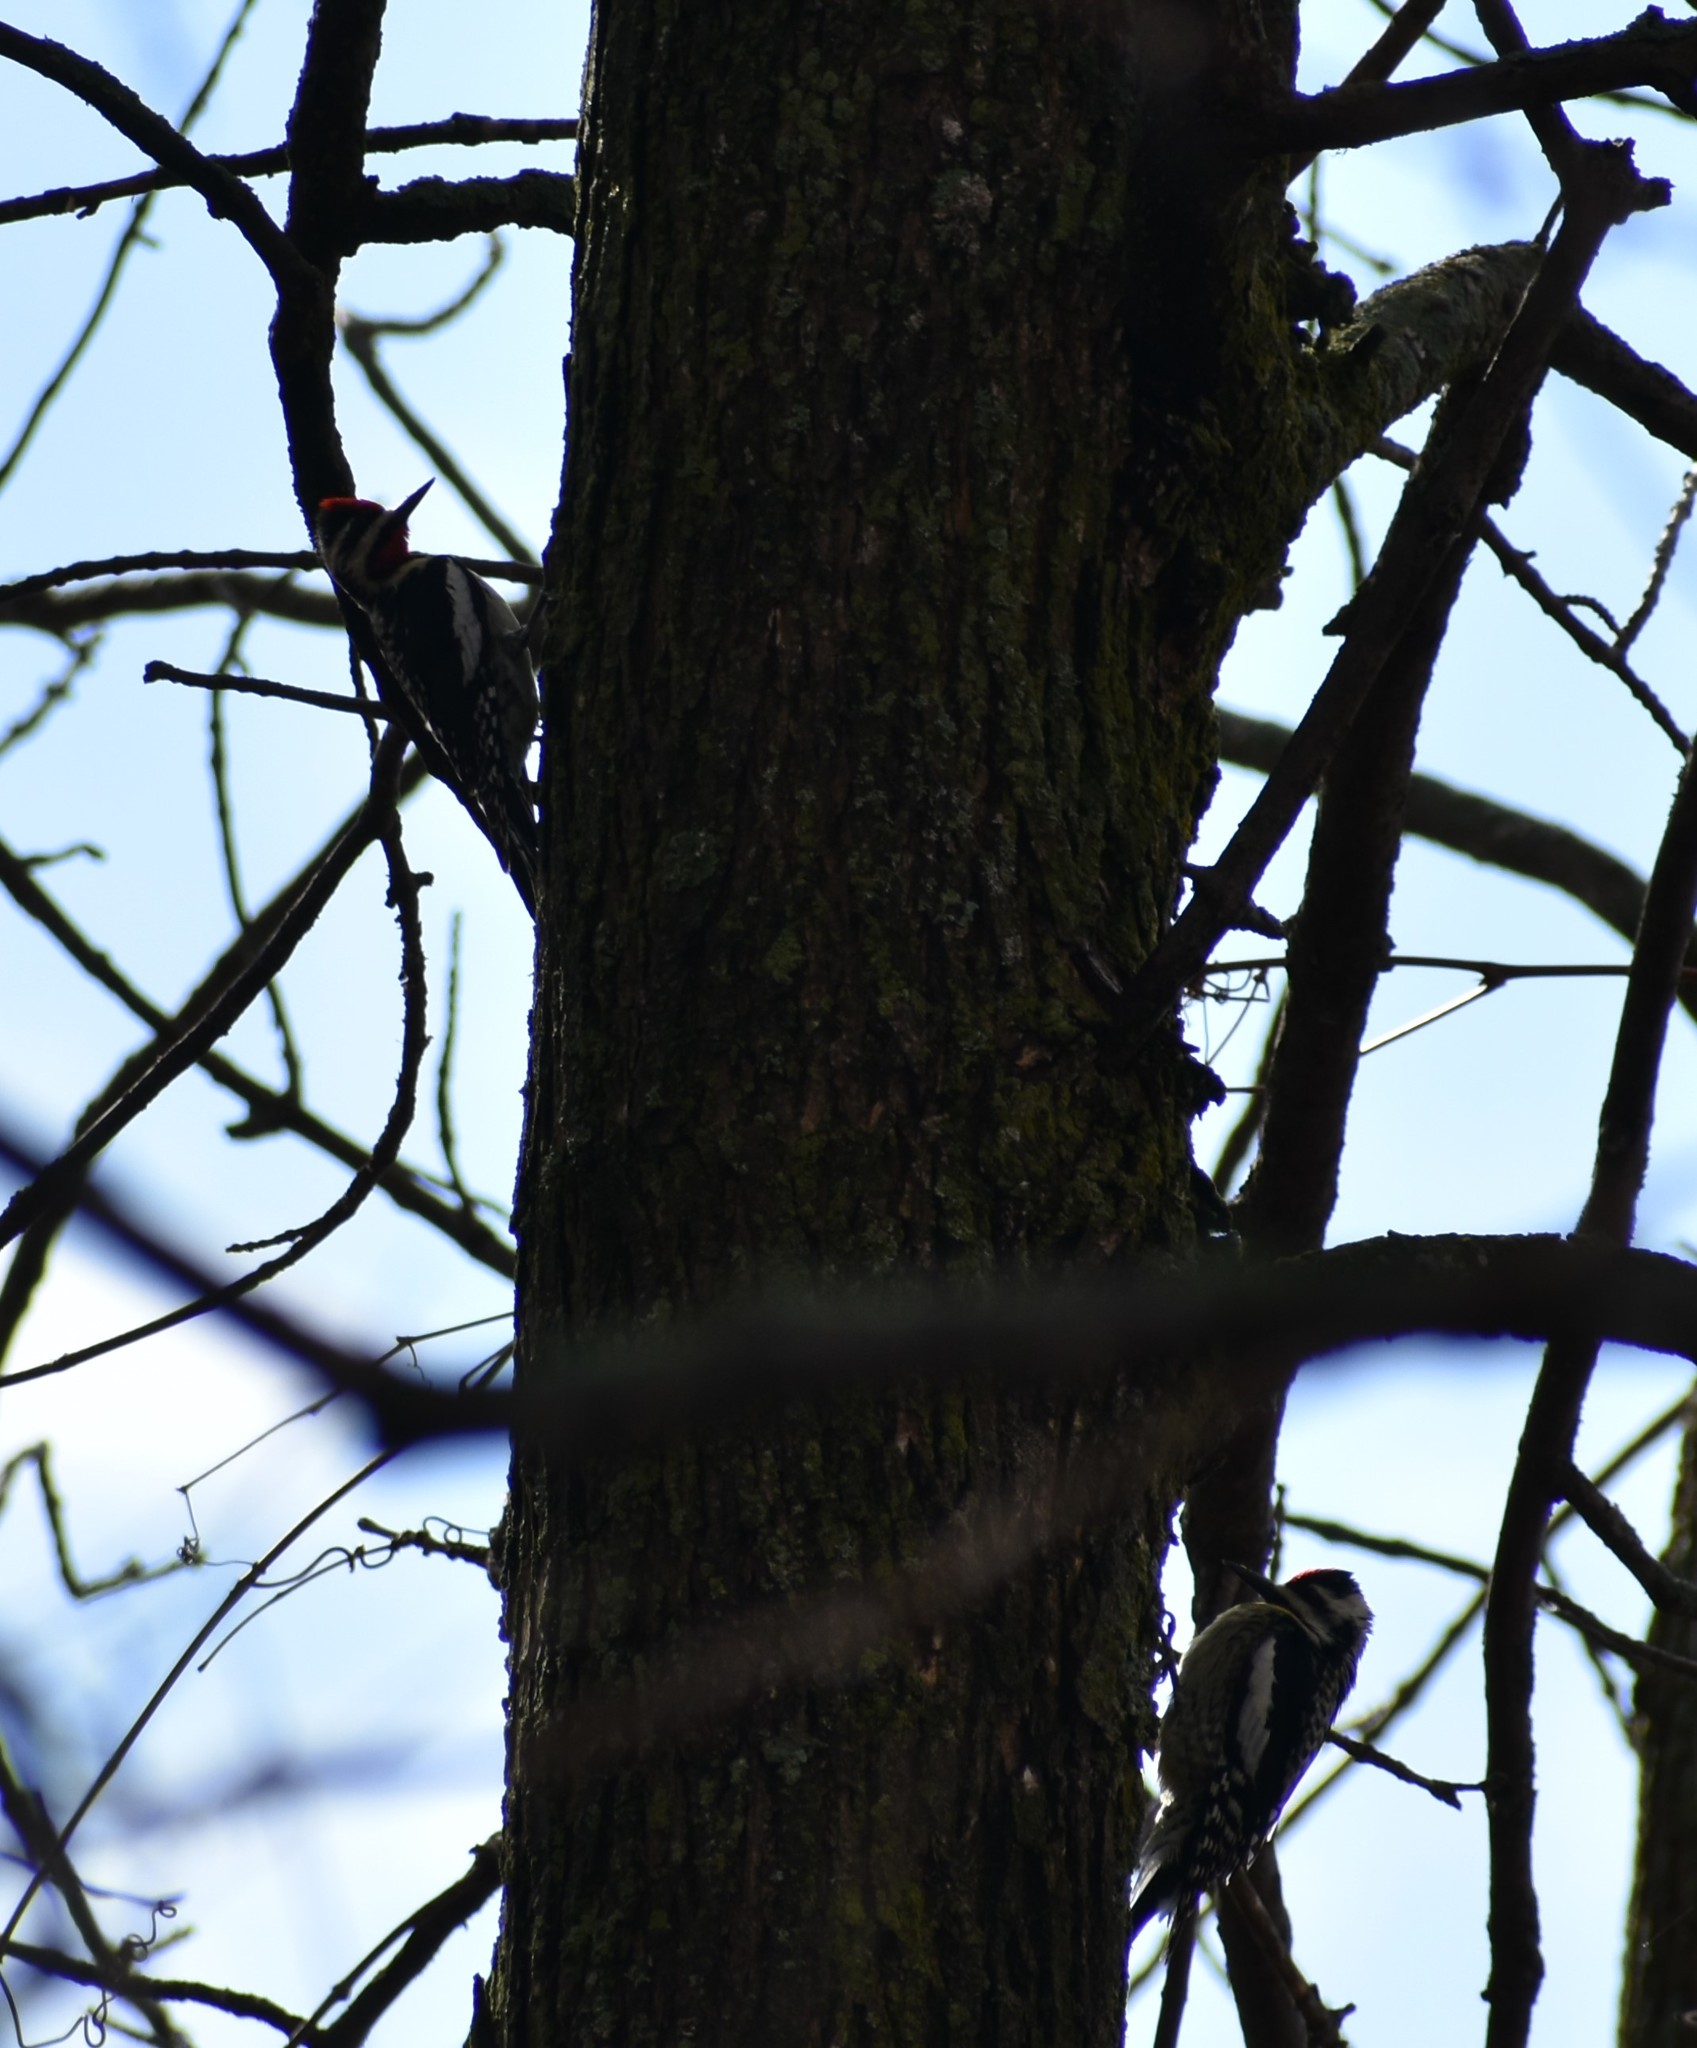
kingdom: Animalia
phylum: Chordata
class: Aves
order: Piciformes
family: Picidae
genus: Sphyrapicus
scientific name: Sphyrapicus varius
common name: Yellow-bellied sapsucker
